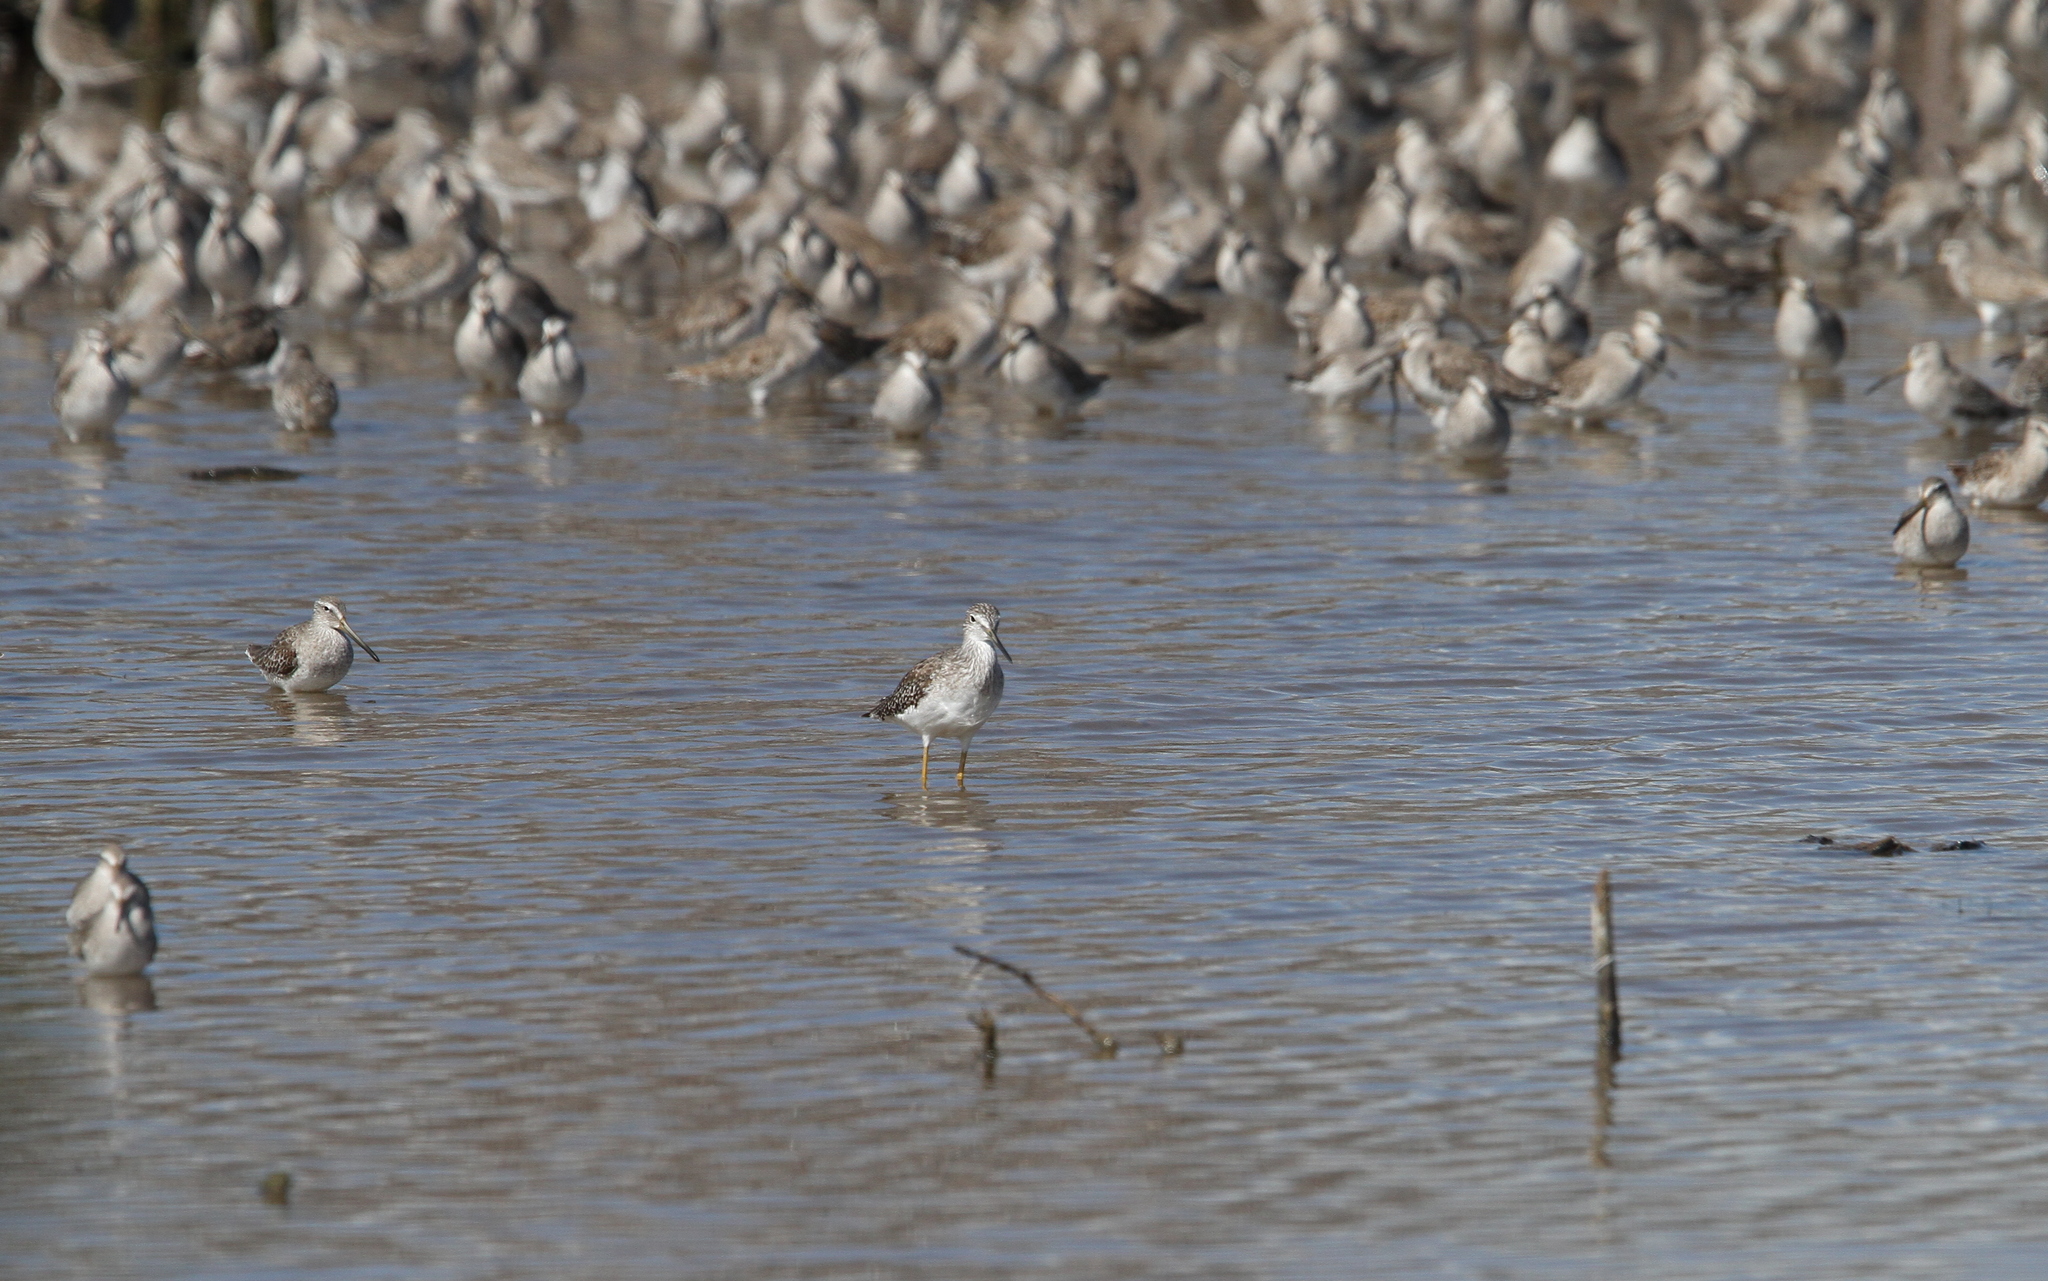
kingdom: Animalia
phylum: Chordata
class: Aves
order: Charadriiformes
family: Scolopacidae
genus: Tringa
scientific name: Tringa melanoleuca
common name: Greater yellowlegs
